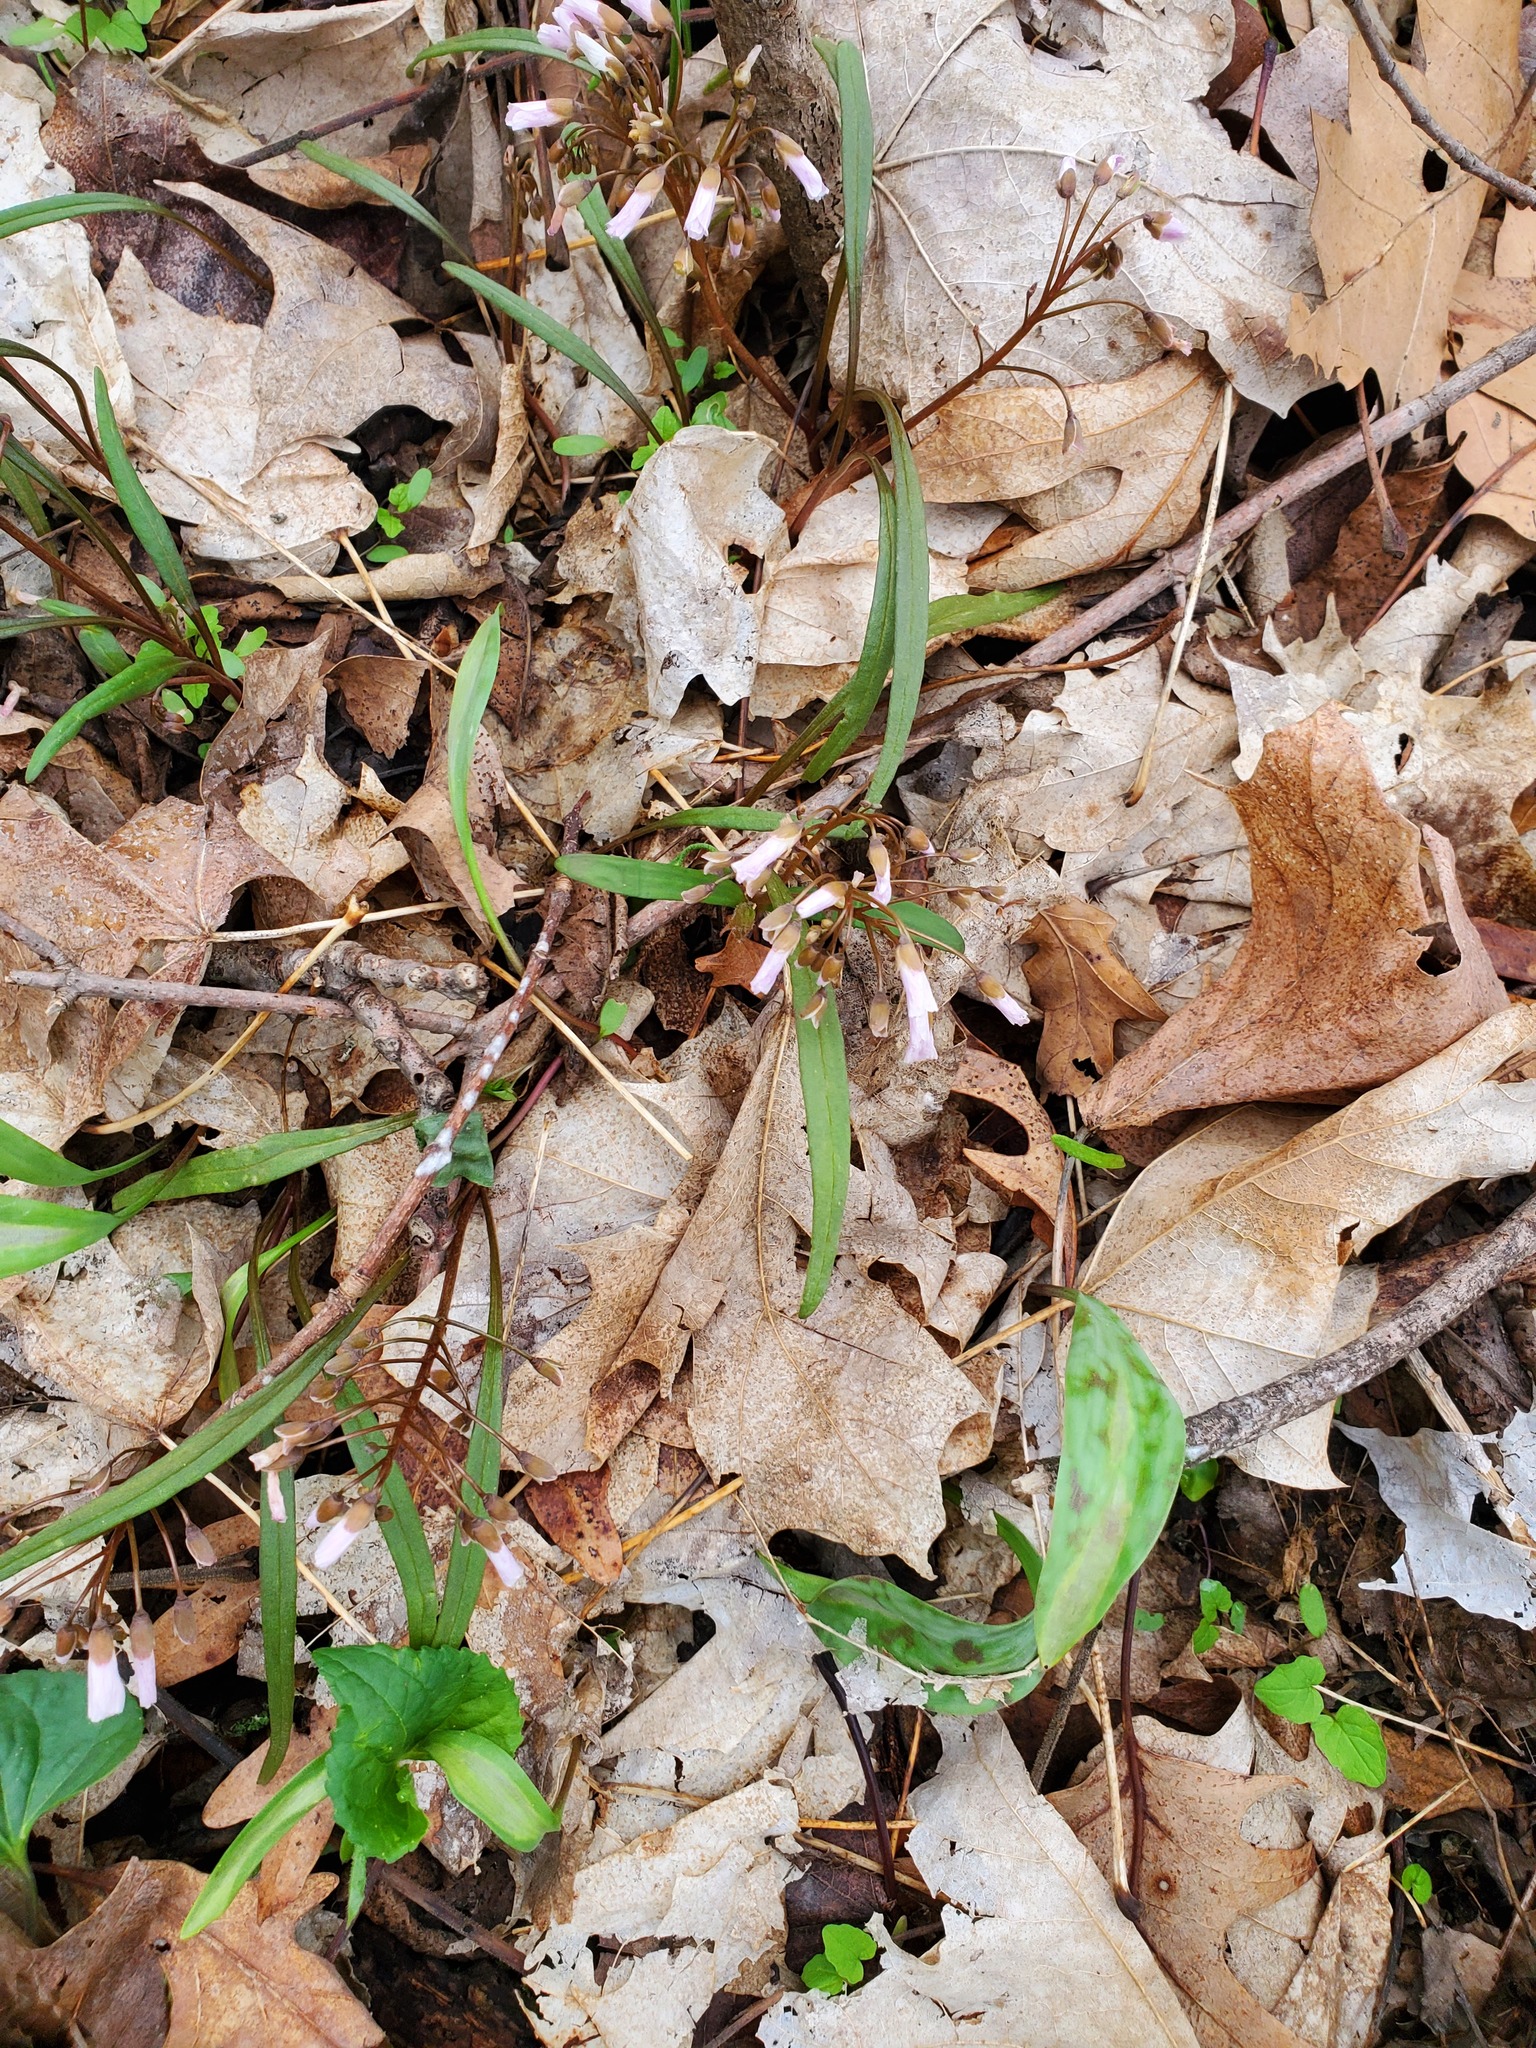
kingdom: Plantae
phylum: Tracheophyta
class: Magnoliopsida
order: Caryophyllales
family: Montiaceae
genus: Claytonia
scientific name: Claytonia virginica
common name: Virginia springbeauty
